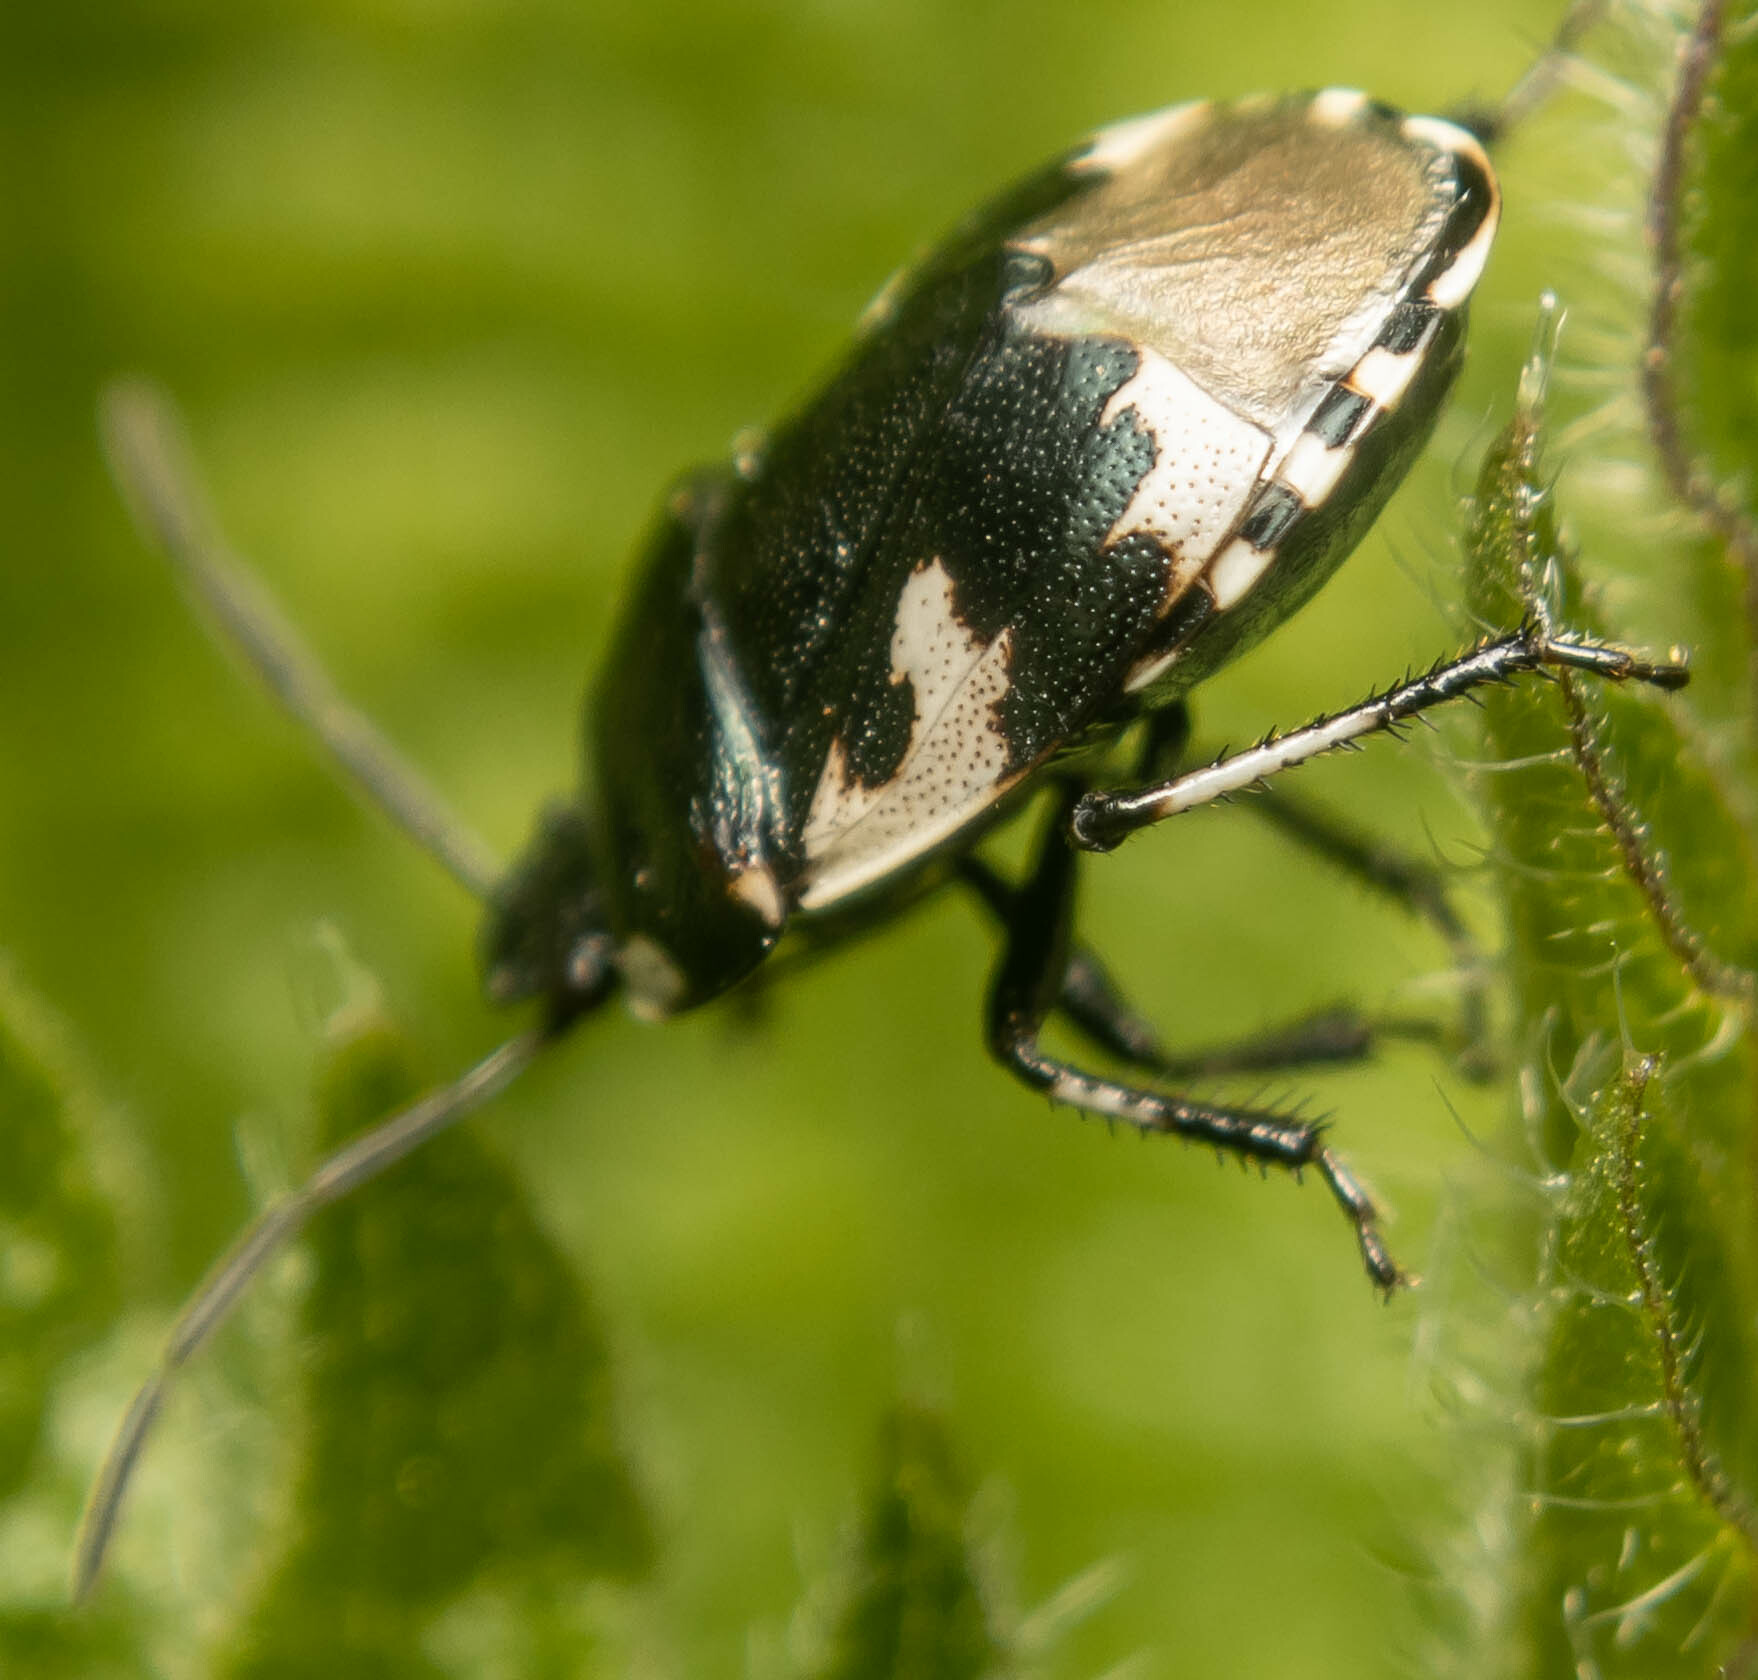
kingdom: Animalia
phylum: Arthropoda
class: Insecta
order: Hemiptera
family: Cydnidae
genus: Tritomegas
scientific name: Tritomegas bicolor
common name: Pied shieldbug
